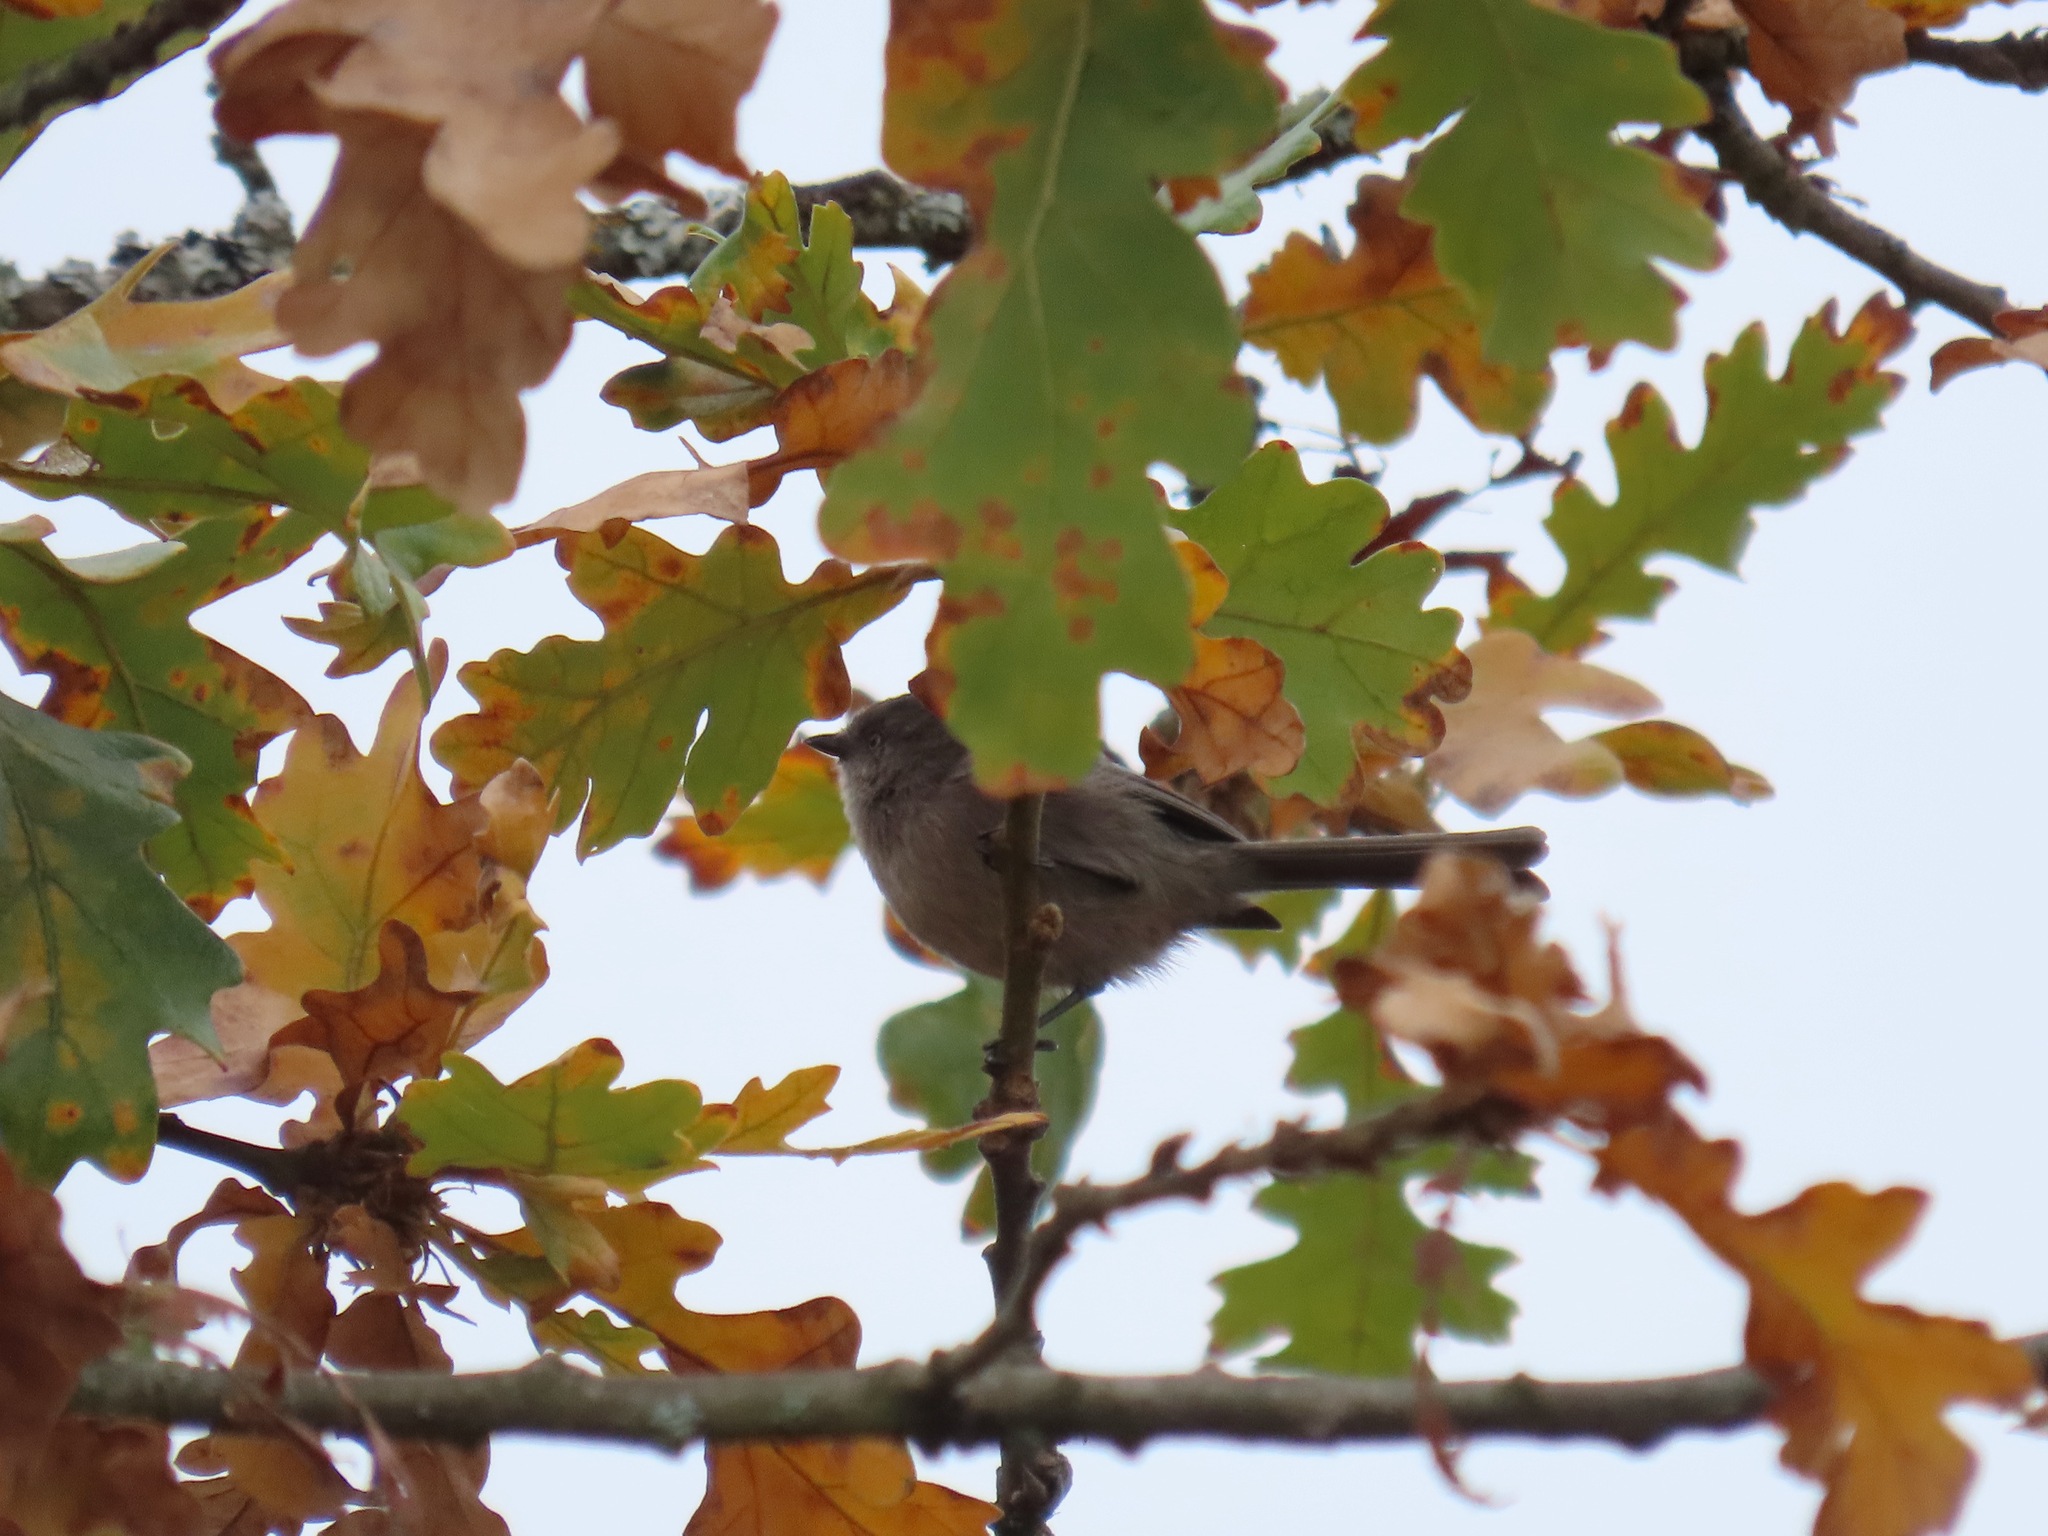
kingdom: Animalia
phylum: Chordata
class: Aves
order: Passeriformes
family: Aegithalidae
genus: Psaltriparus
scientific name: Psaltriparus minimus
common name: American bushtit
